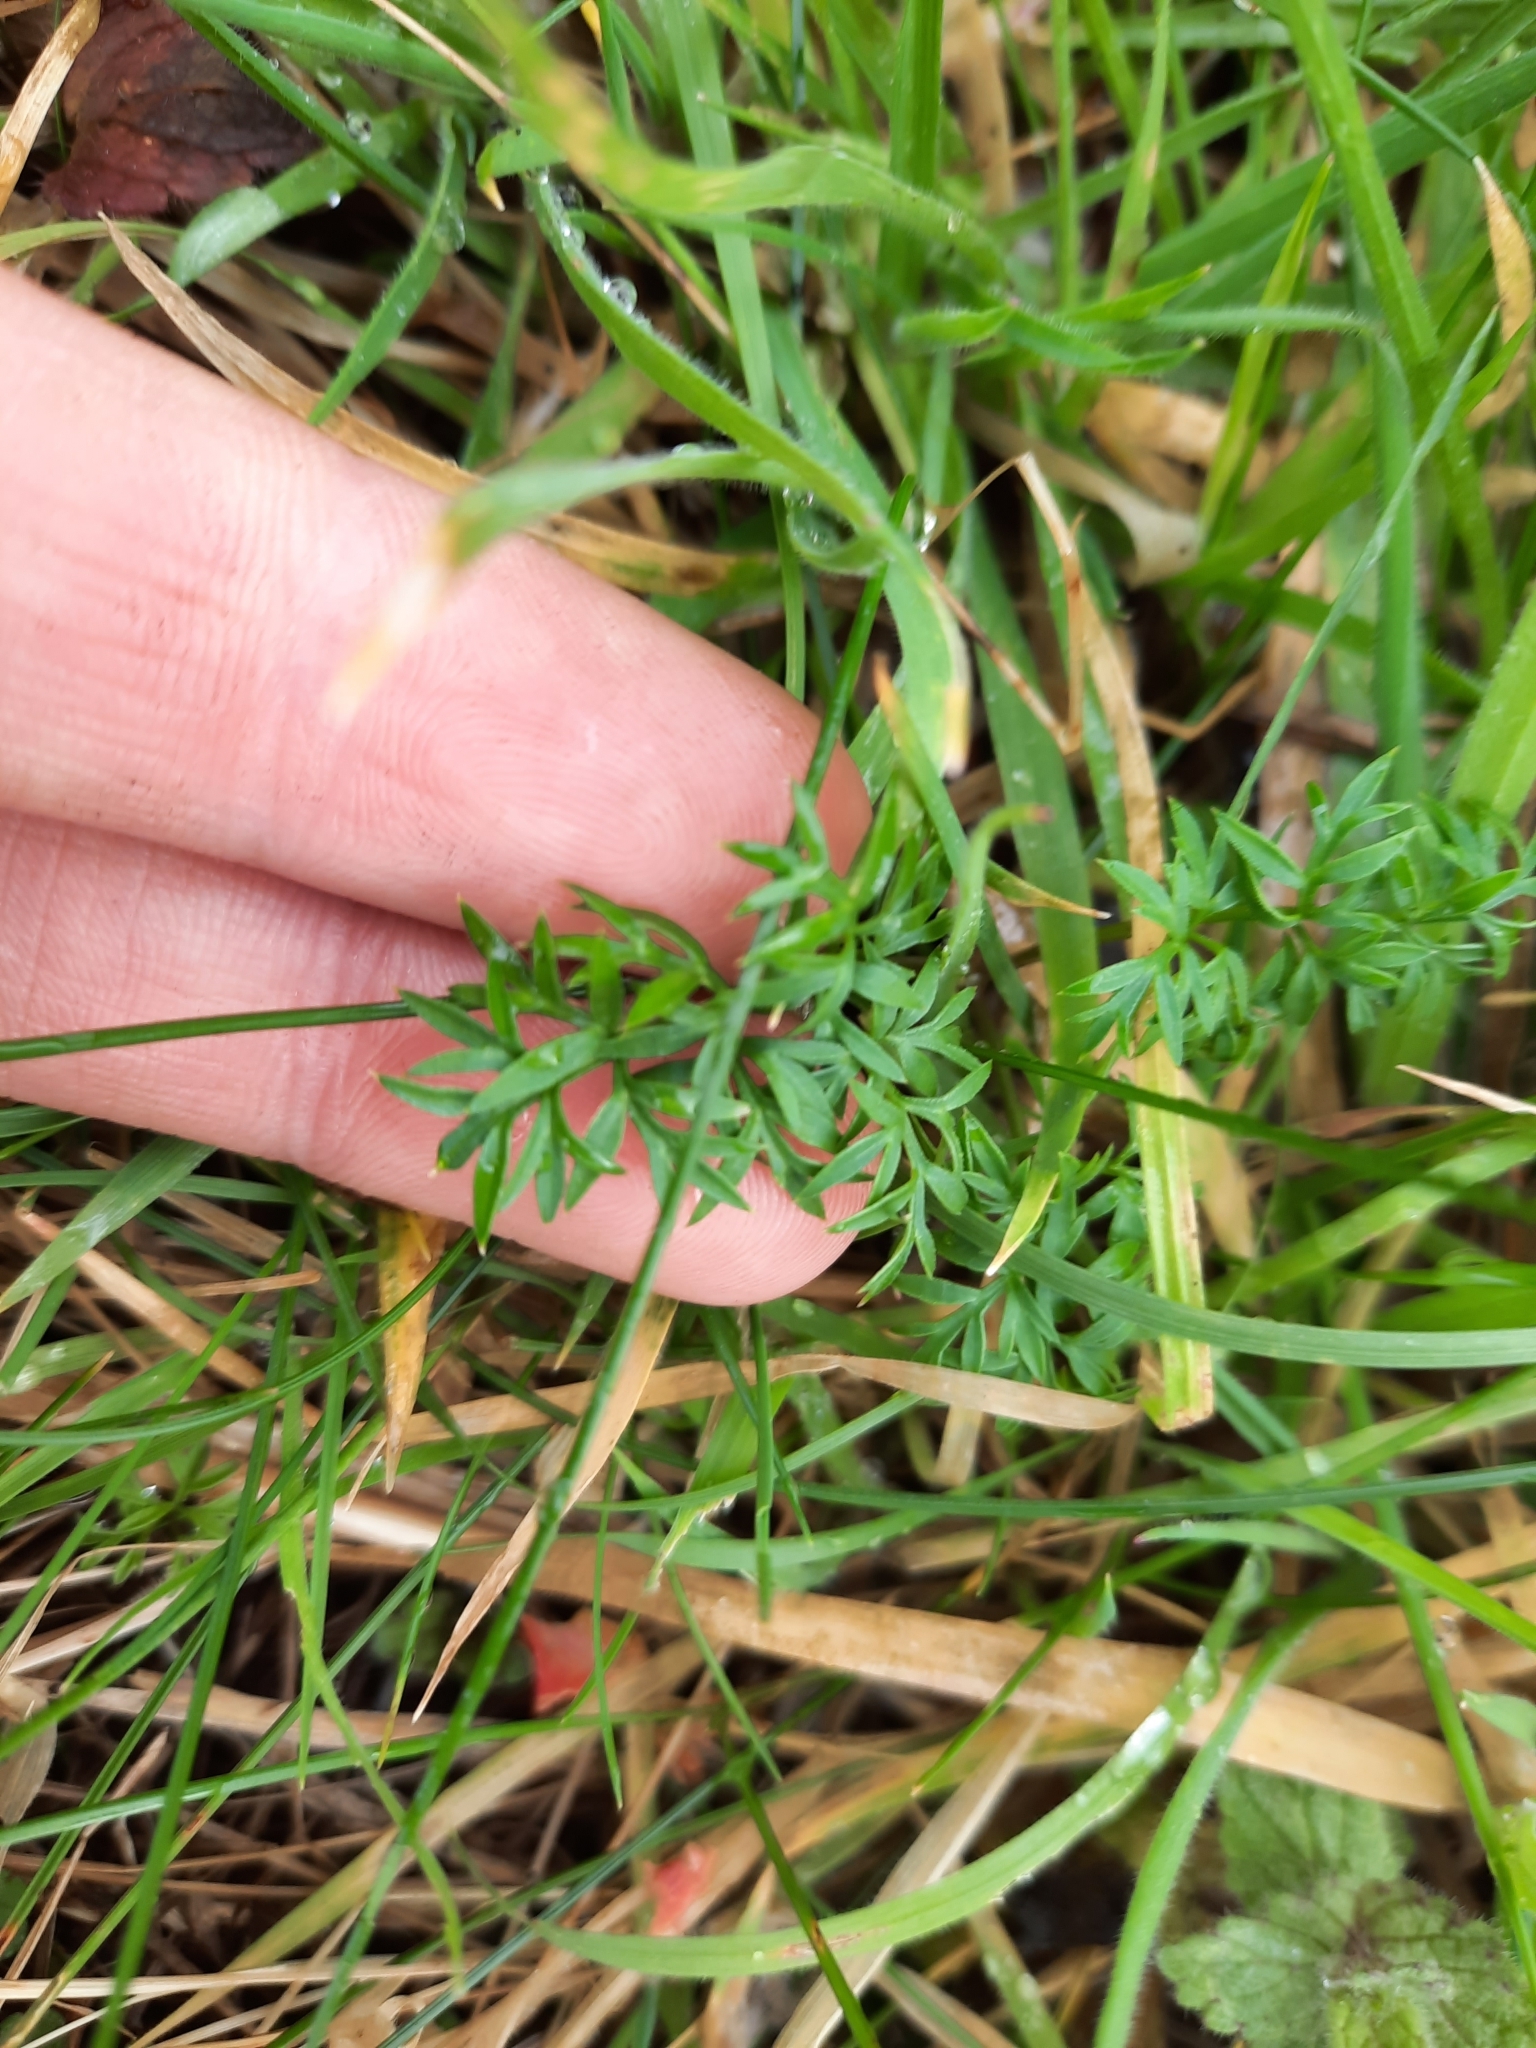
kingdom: Plantae
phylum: Tracheophyta
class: Magnoliopsida
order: Apiales
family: Apiaceae
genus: Conopodium
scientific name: Conopodium majus
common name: Pignut
